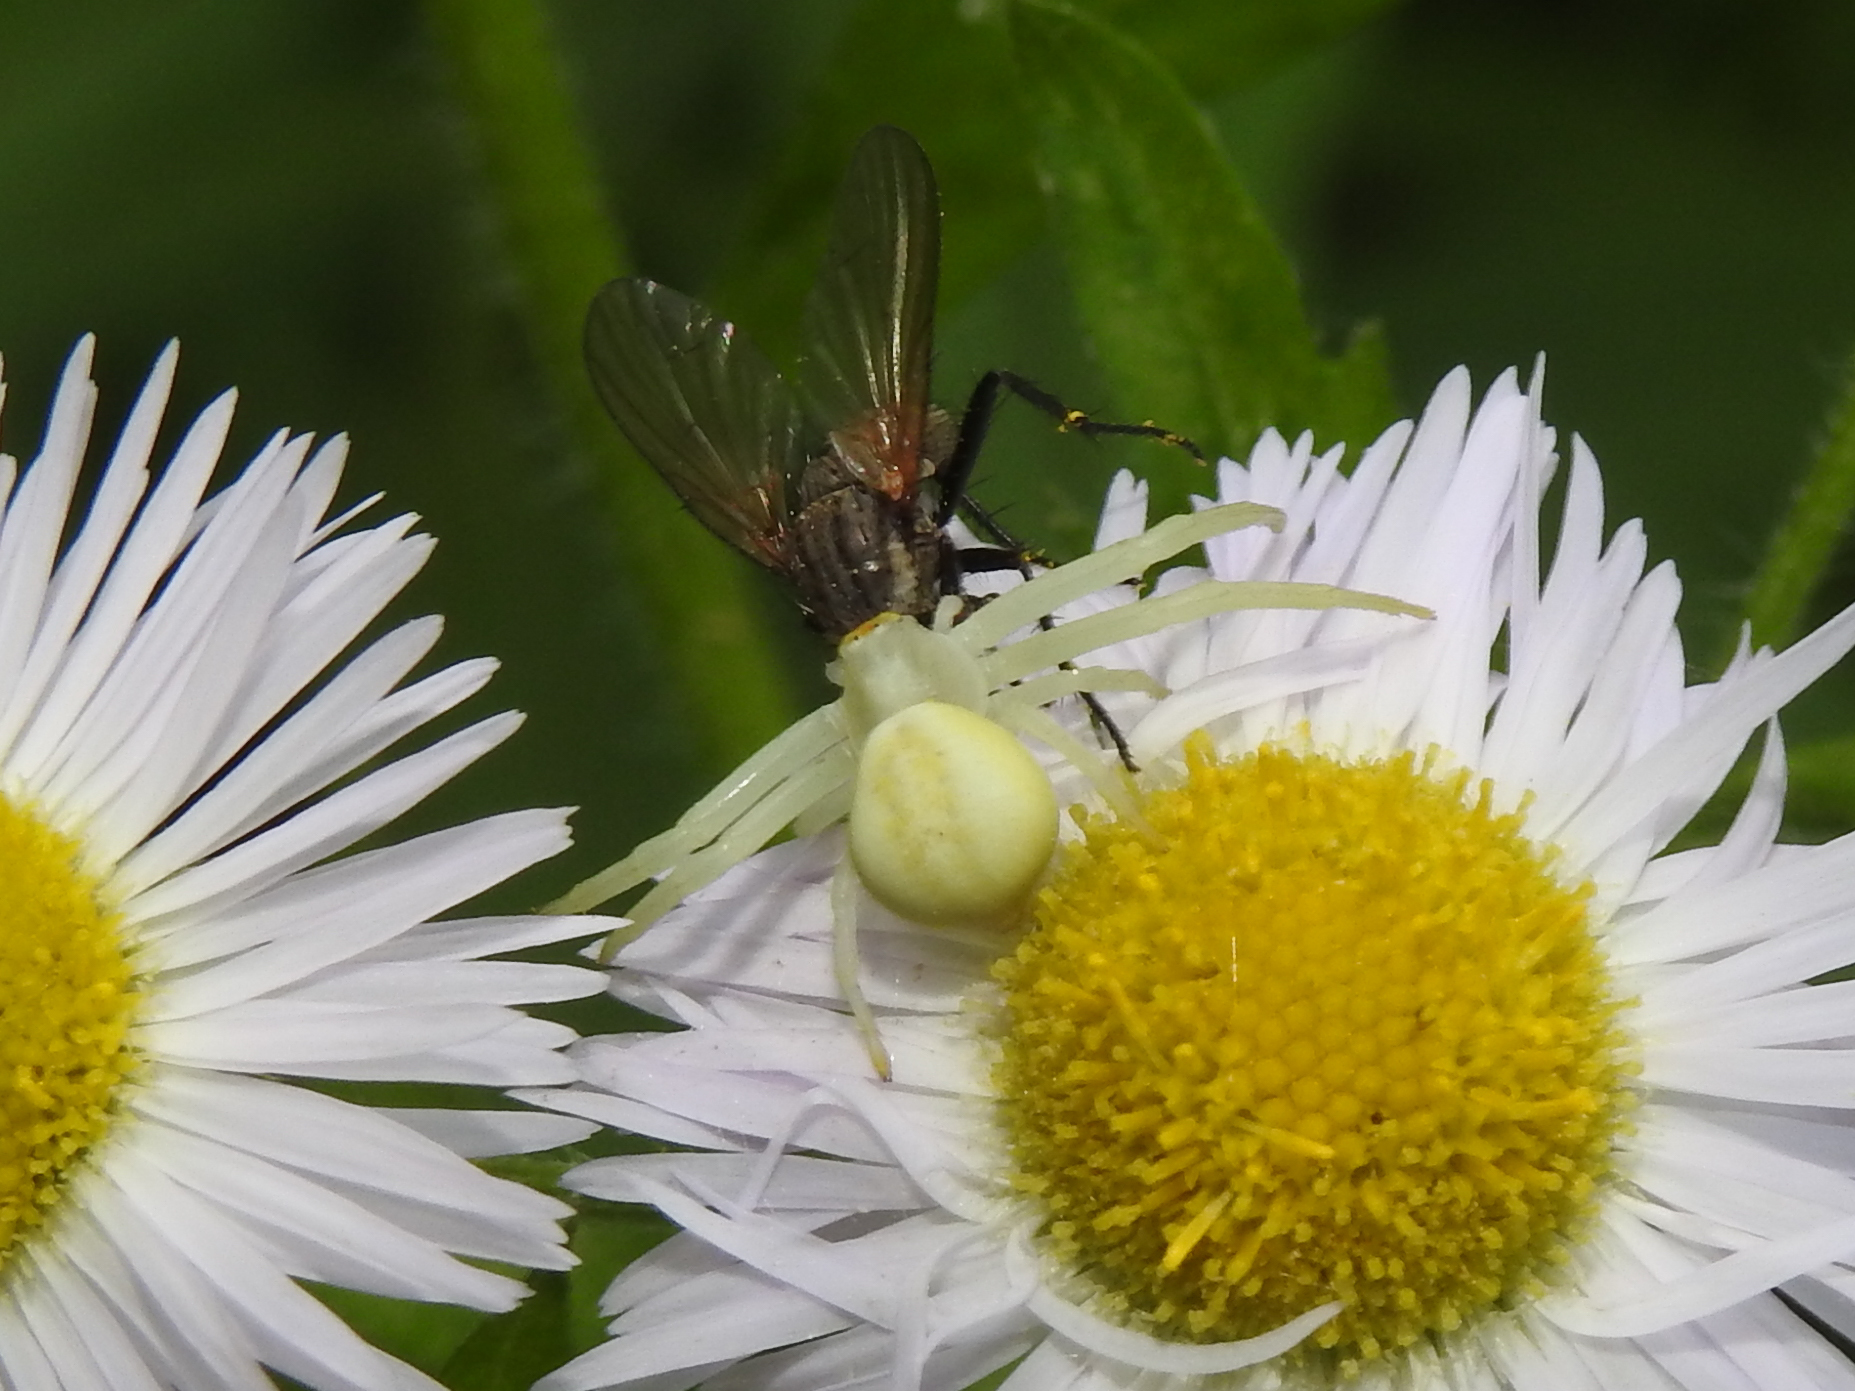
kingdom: Animalia
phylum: Arthropoda
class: Arachnida
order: Araneae
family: Thomisidae
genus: Misumena
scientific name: Misumena vatia
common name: Goldenrod crab spider
